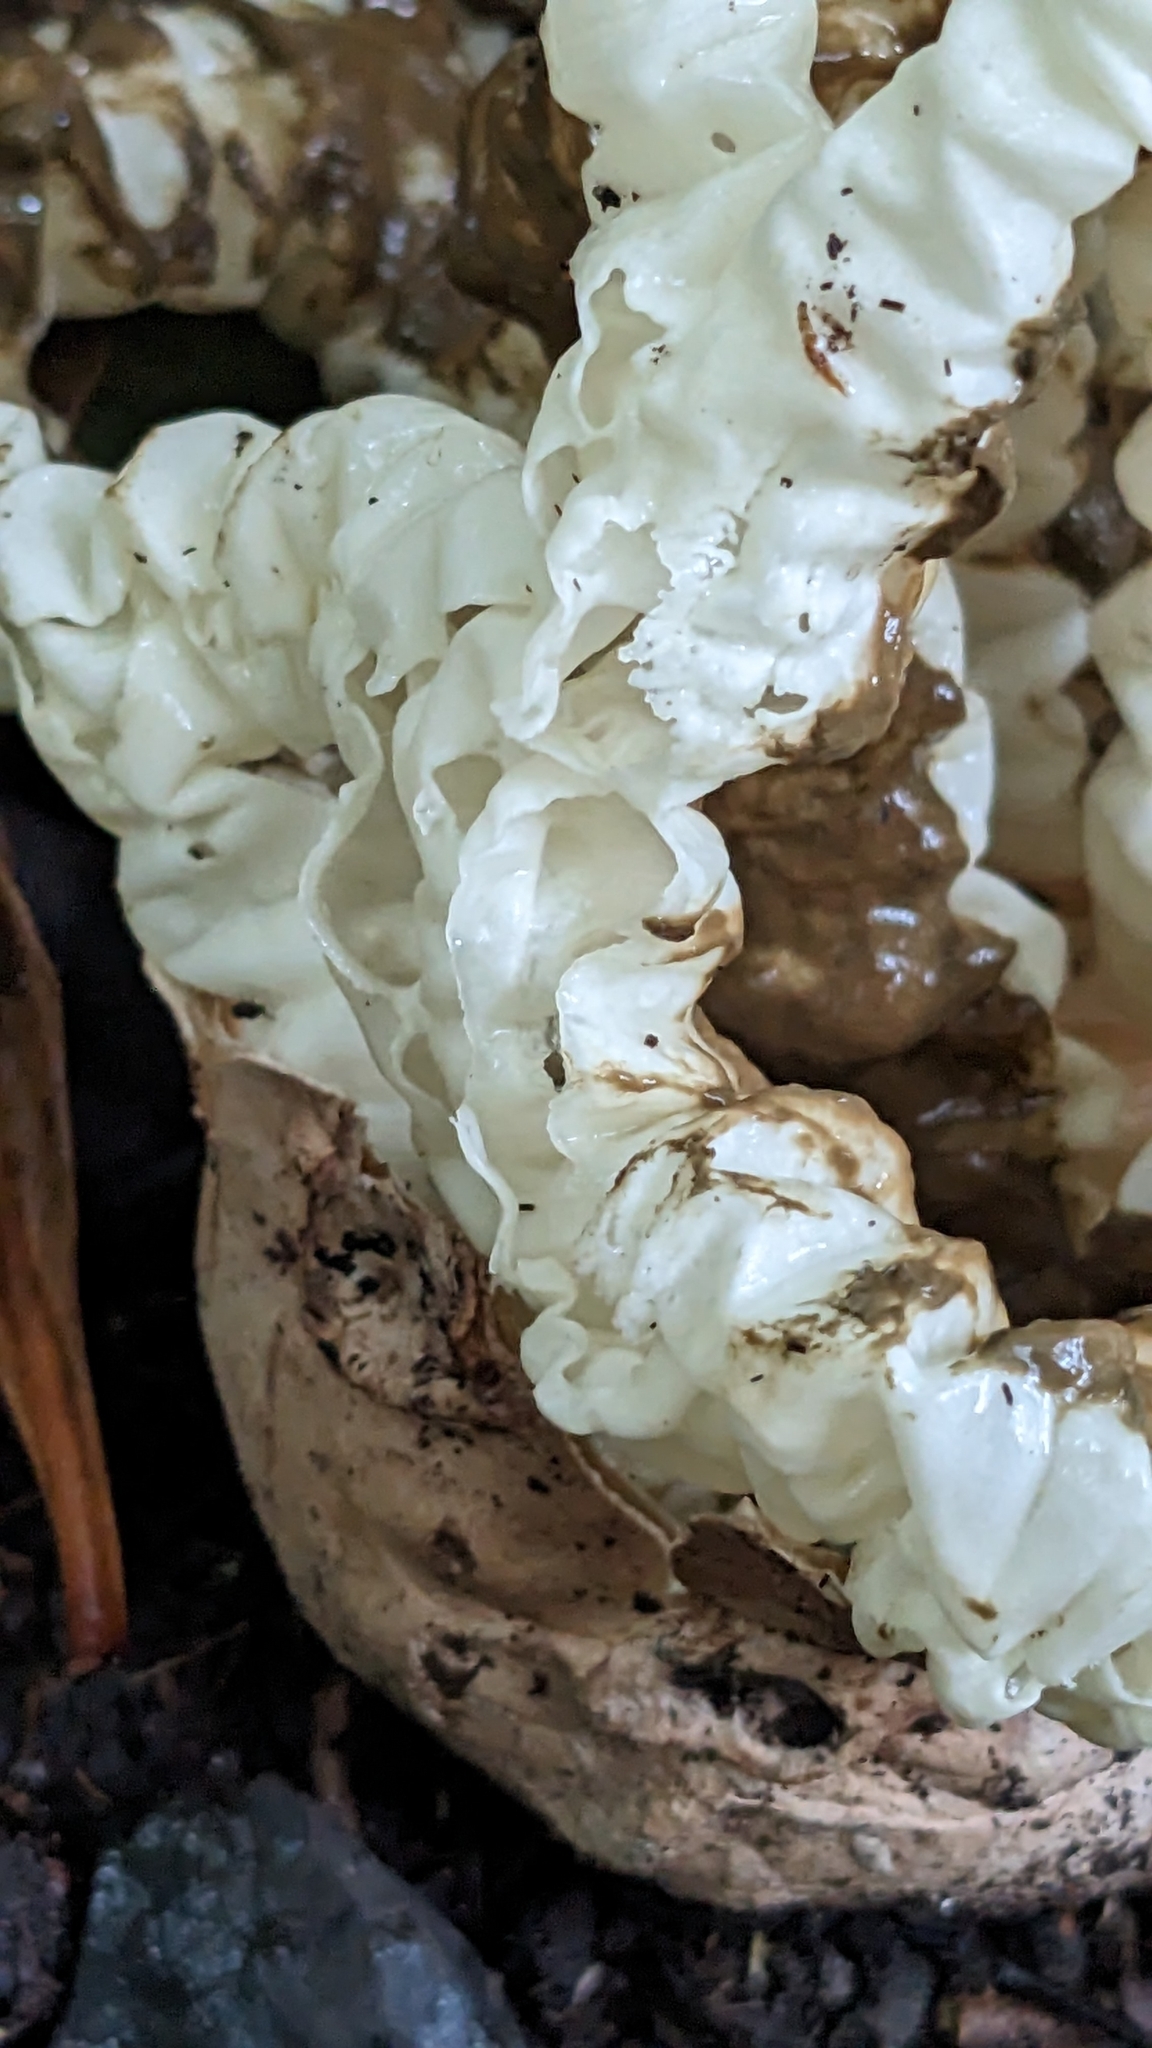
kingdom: Fungi
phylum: Basidiomycota
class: Agaricomycetes
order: Phallales
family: Phallaceae
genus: Ileodictyon
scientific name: Ileodictyon cibarium
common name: Basket fungus
